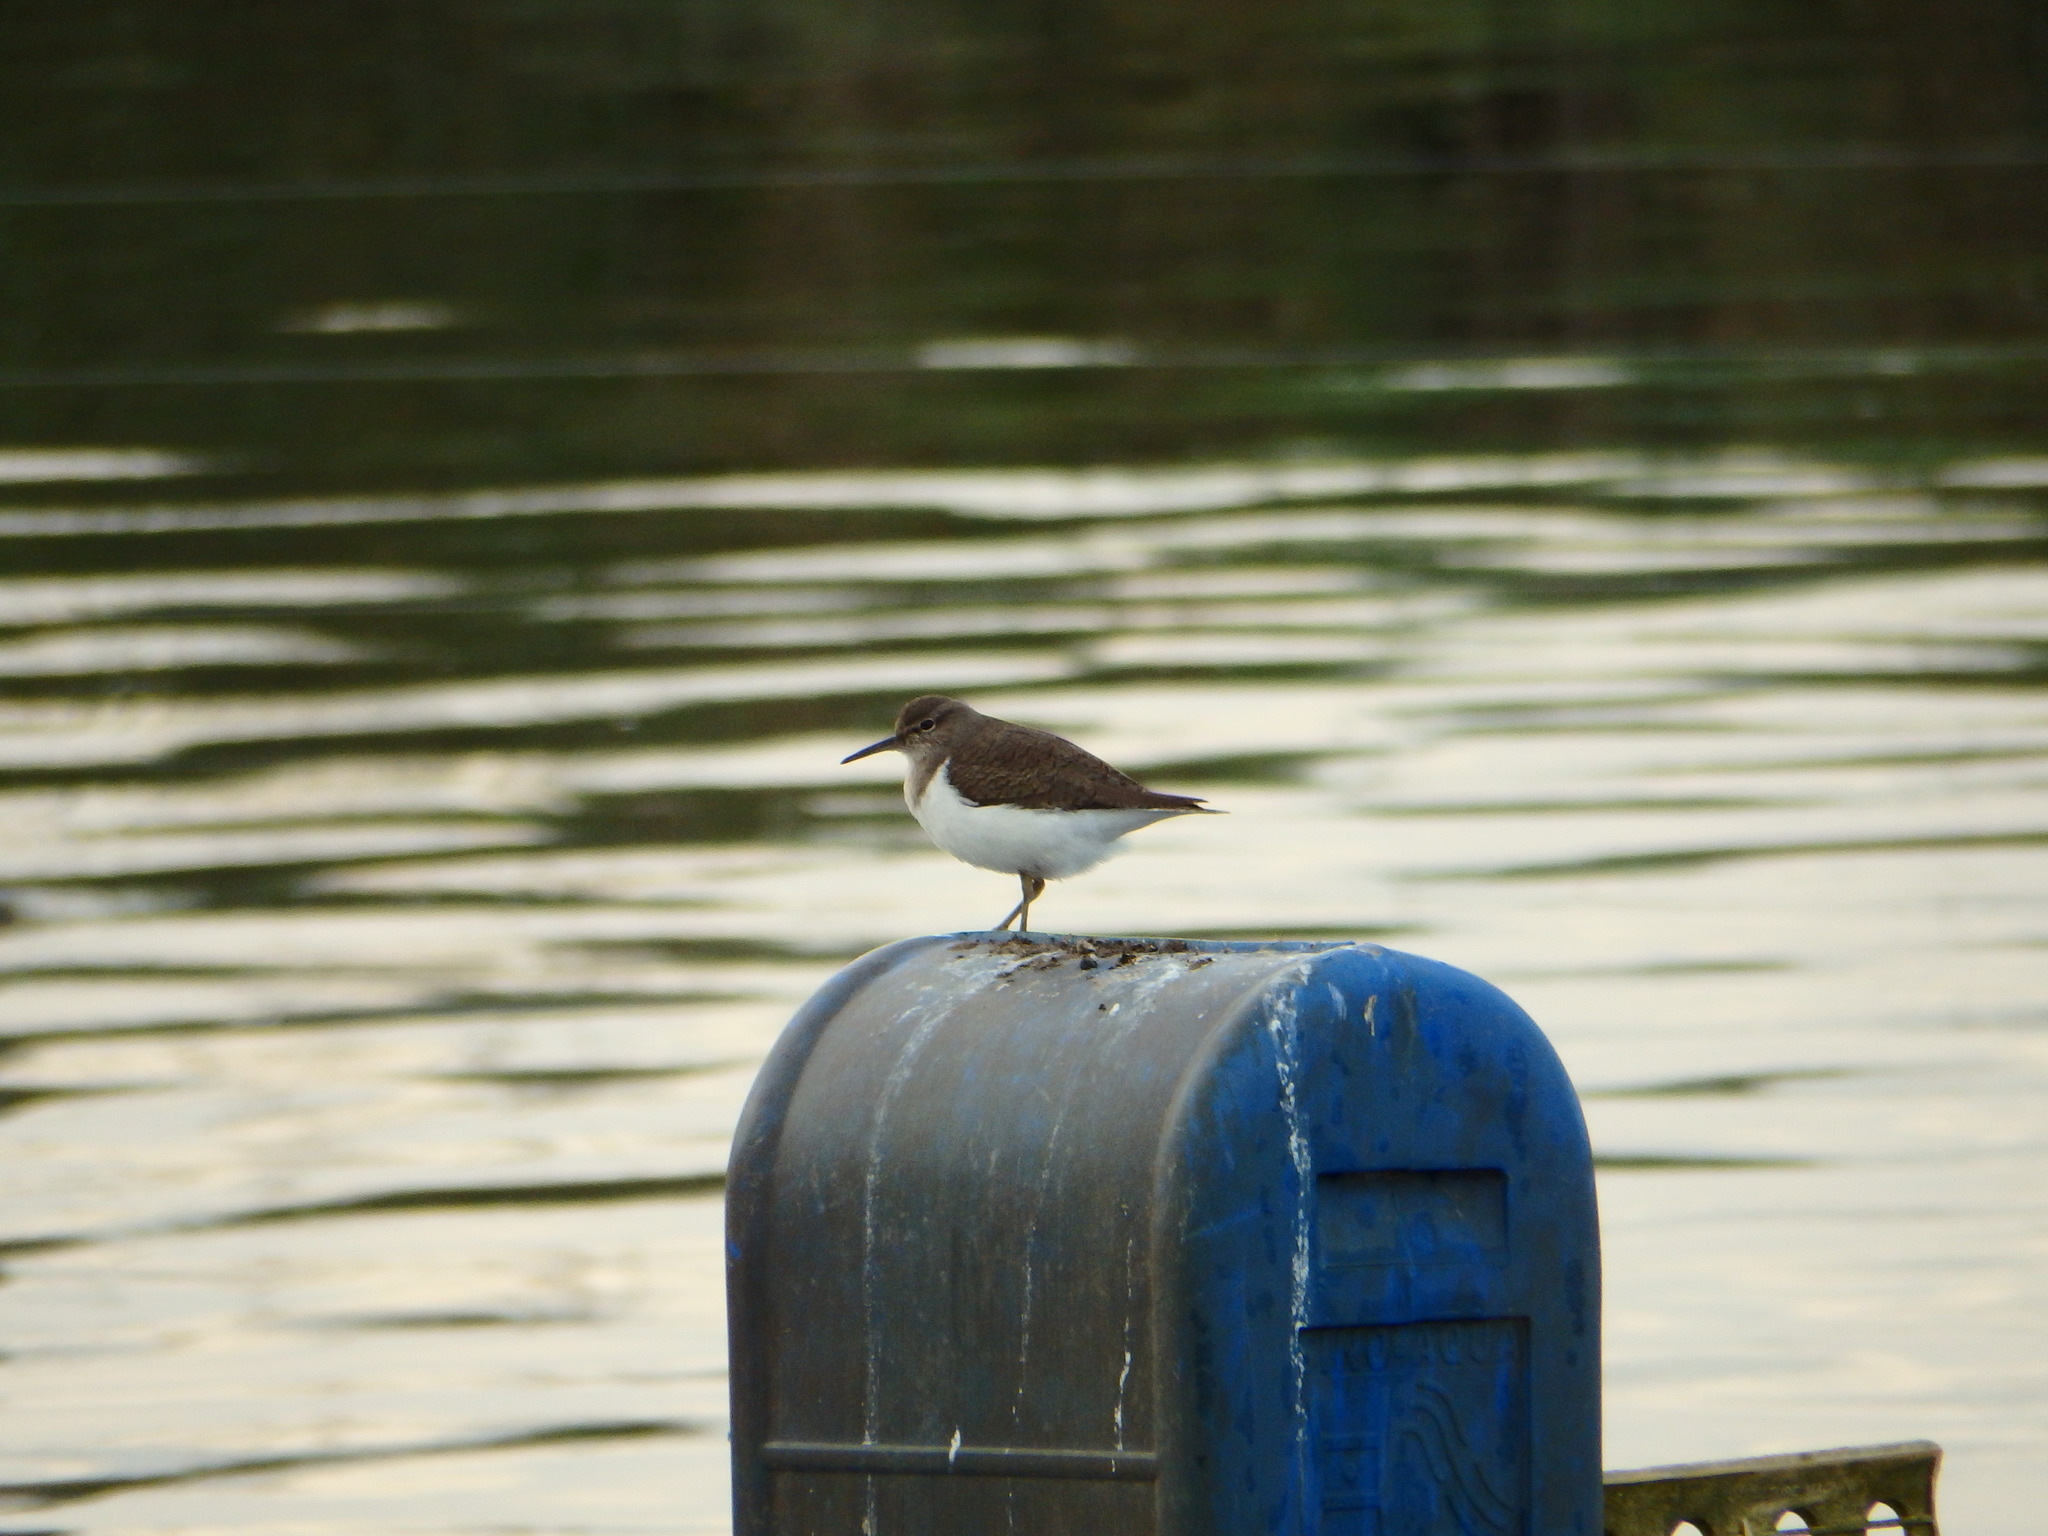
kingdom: Animalia
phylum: Chordata
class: Aves
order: Charadriiformes
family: Scolopacidae
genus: Actitis
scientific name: Actitis hypoleucos
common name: Common sandpiper
